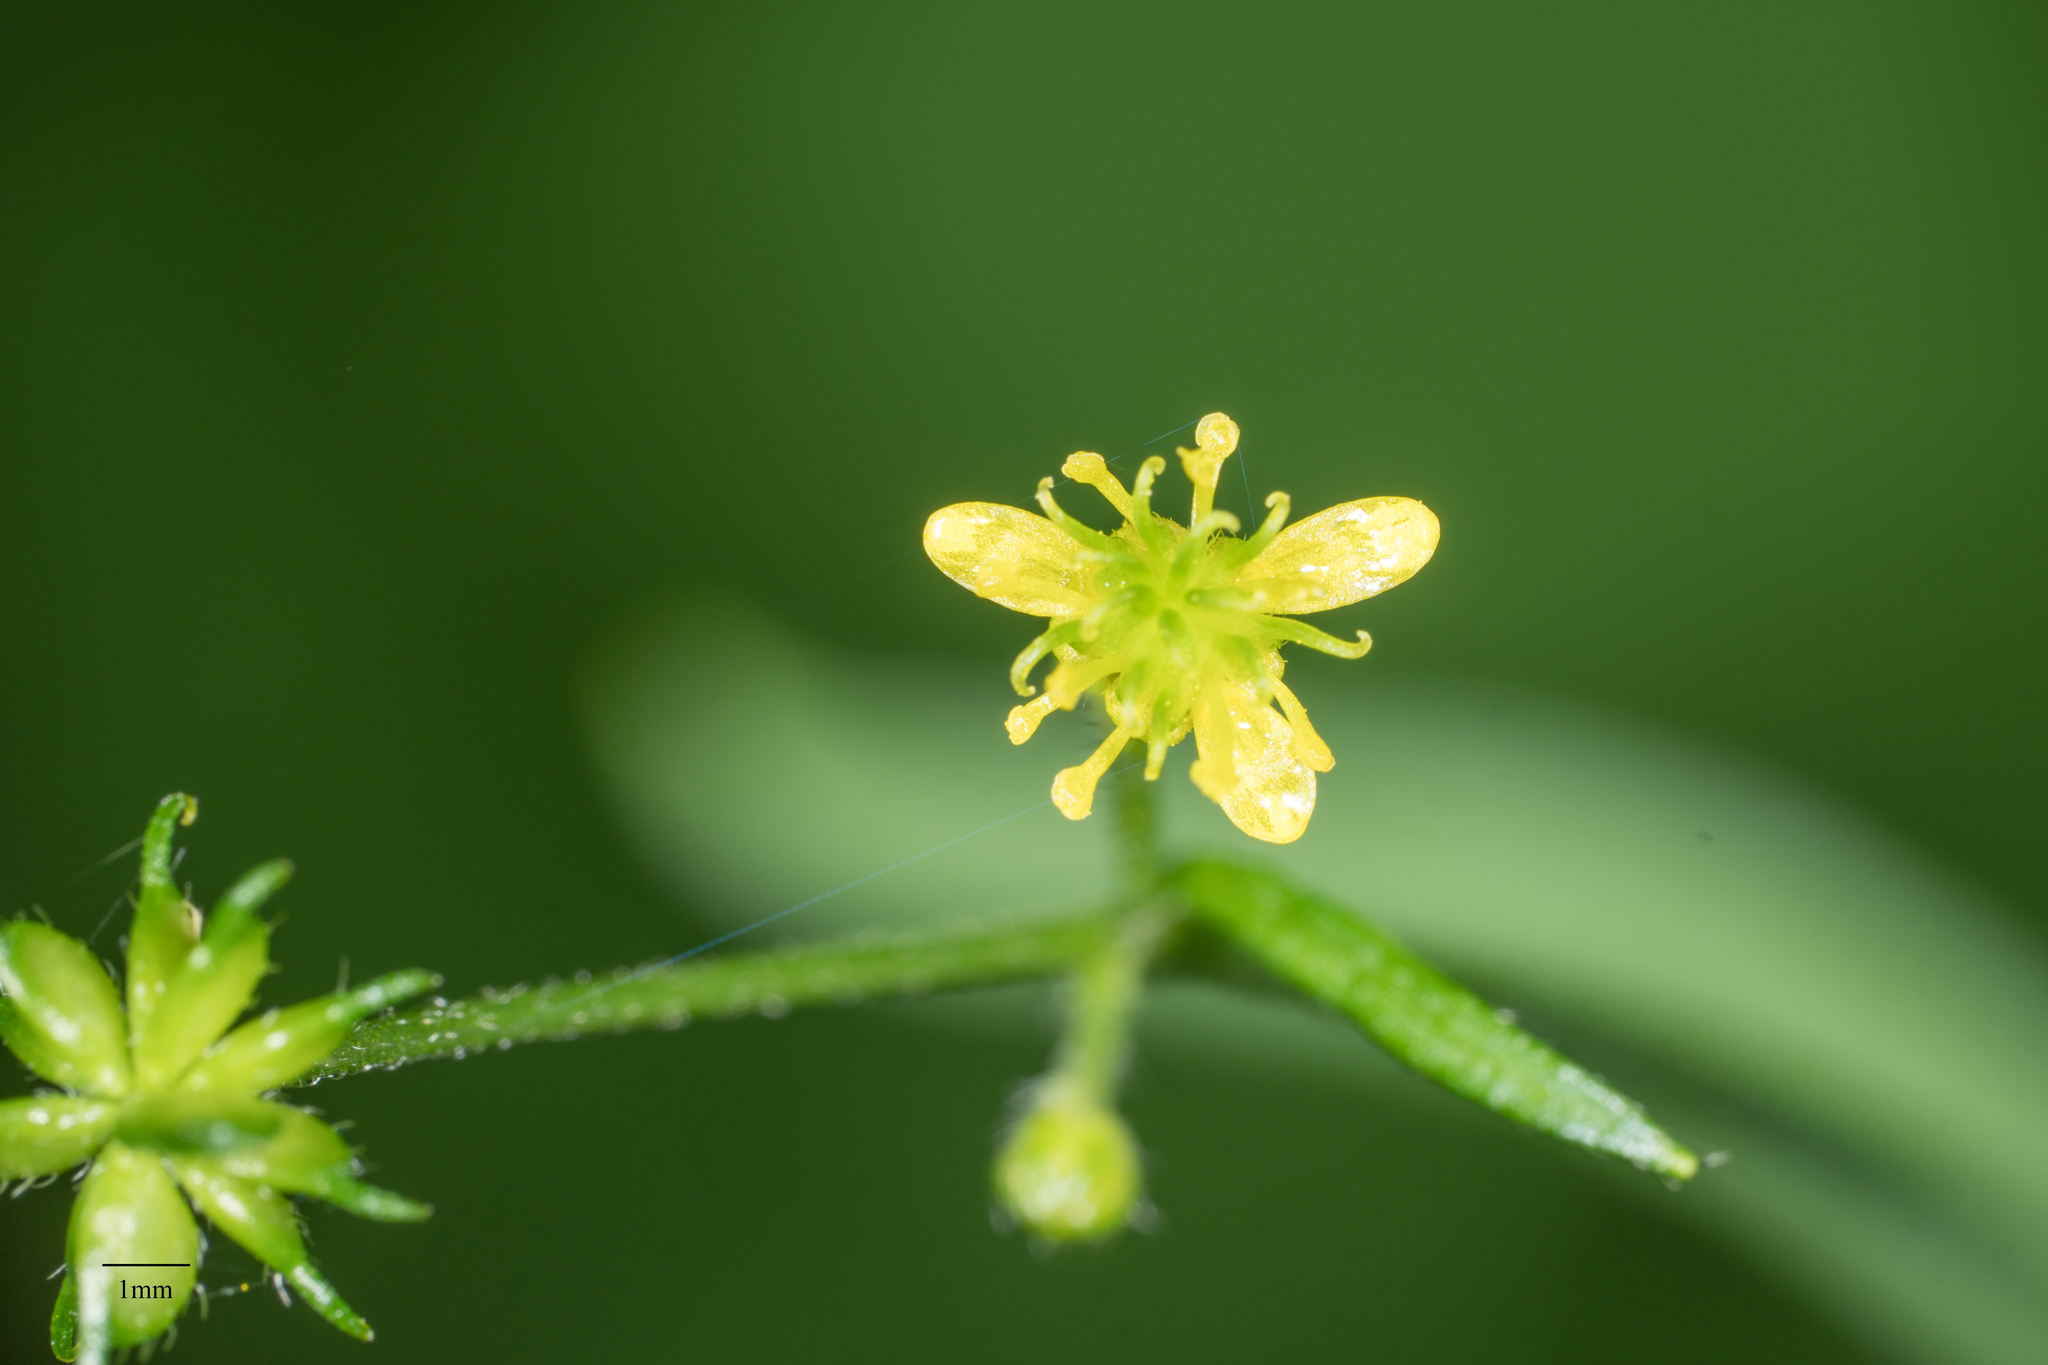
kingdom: Plantae
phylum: Tracheophyta
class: Magnoliopsida
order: Ranunculales
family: Ranunculaceae
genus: Ranunculus
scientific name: Ranunculus uncinatus
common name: Little buttercup
